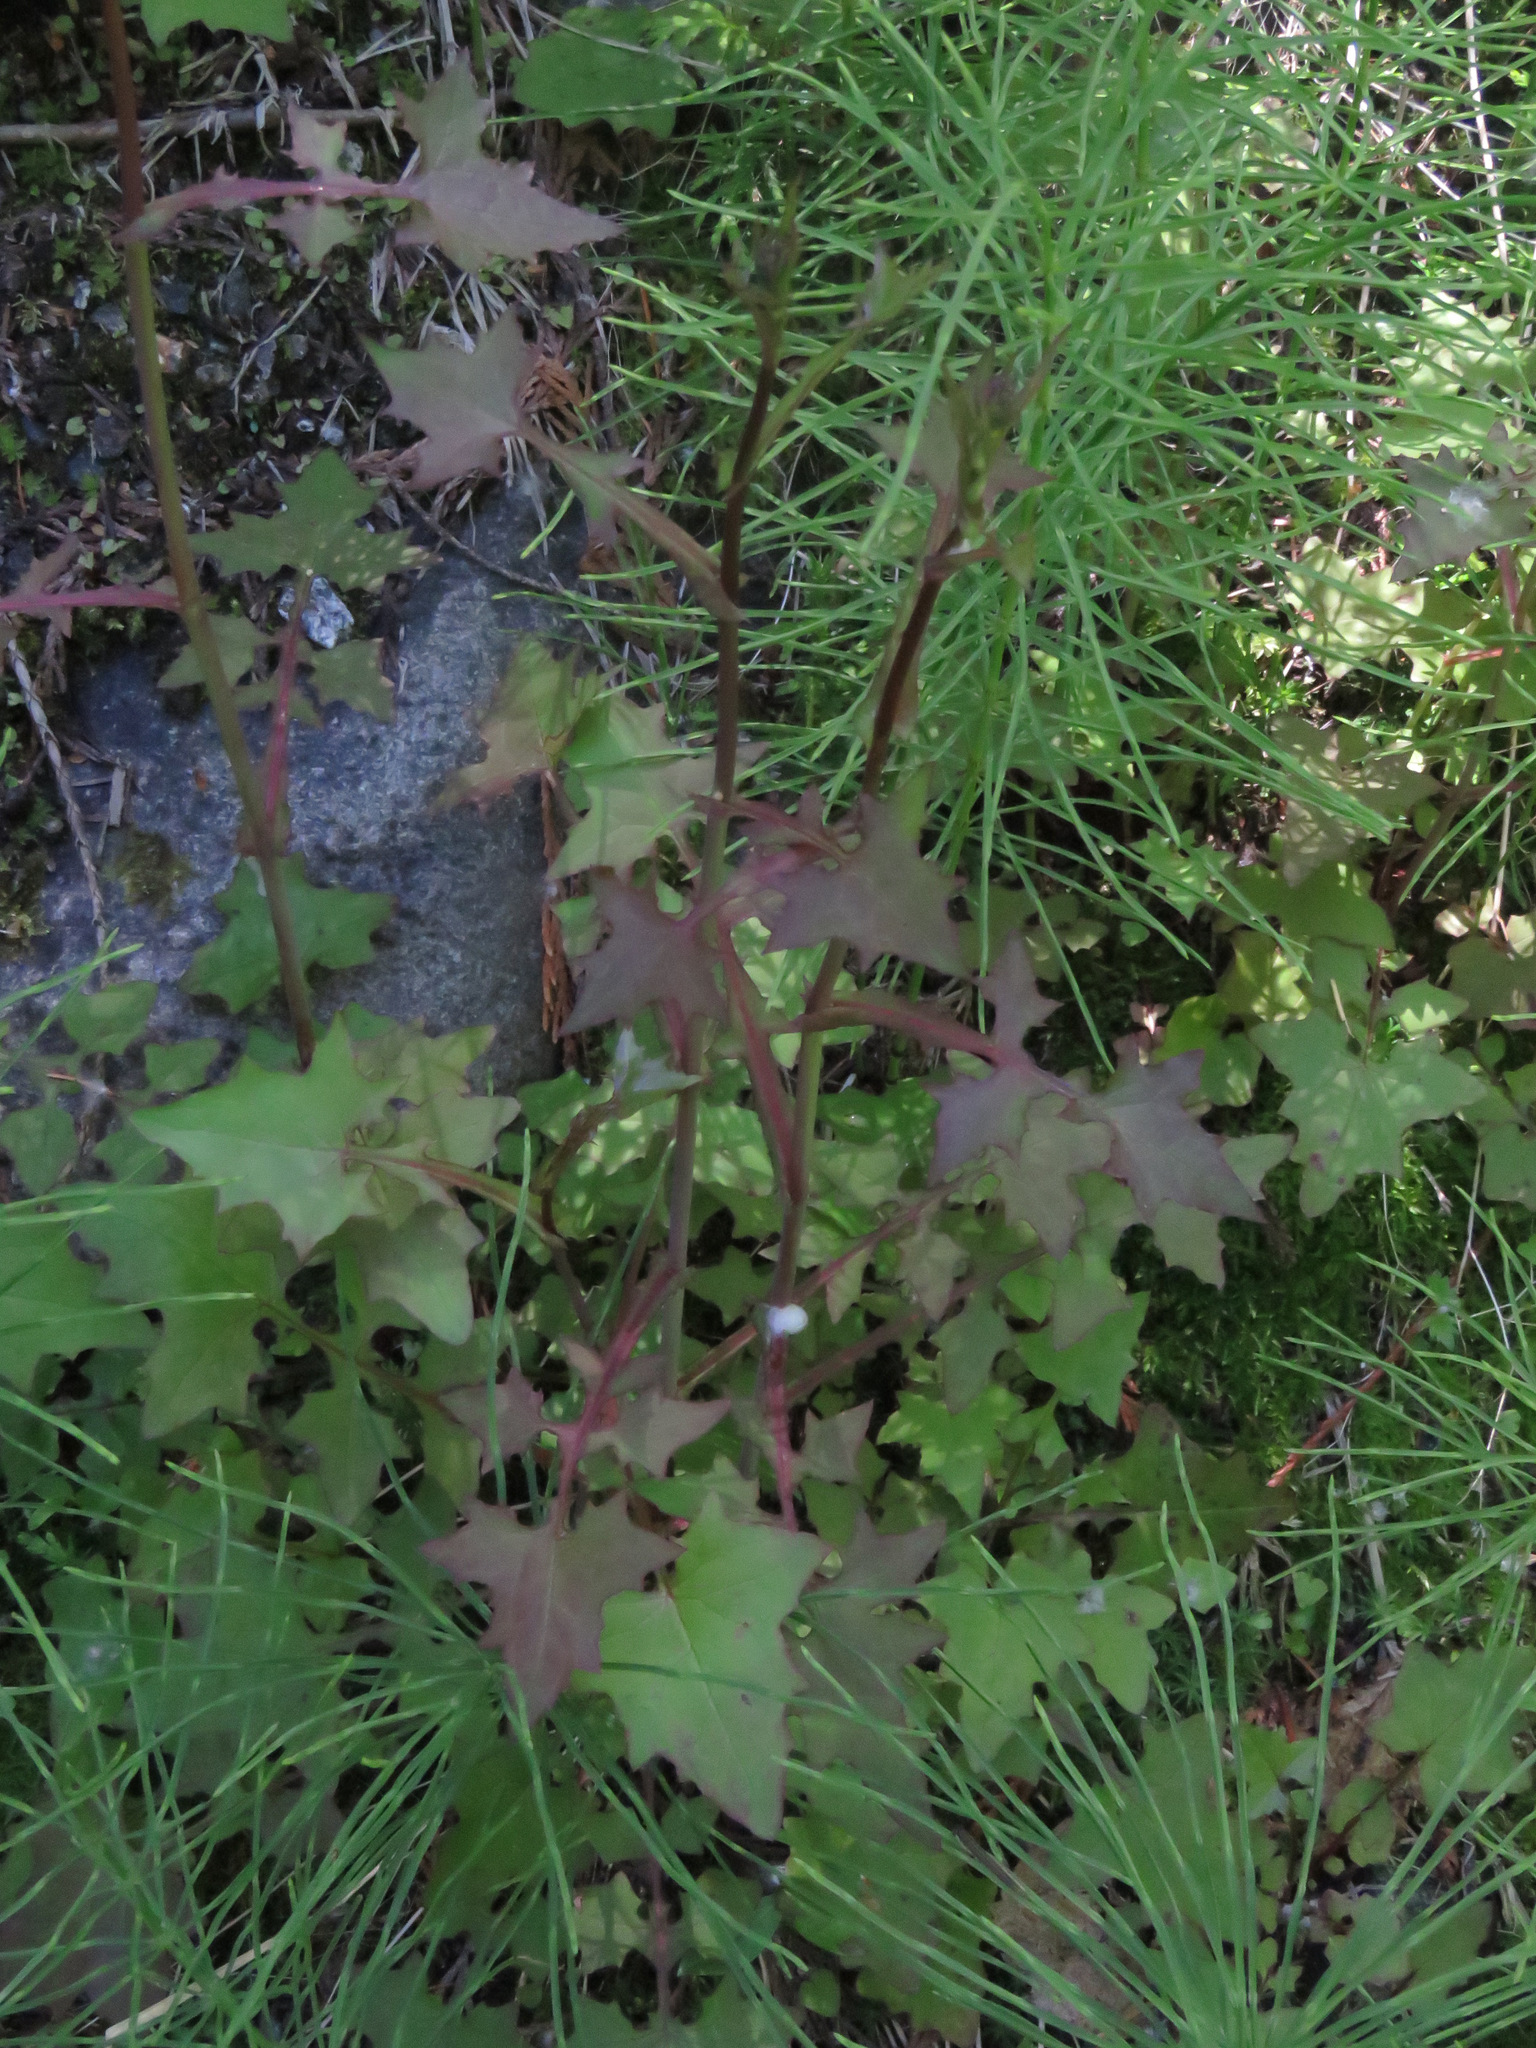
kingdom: Plantae
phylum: Tracheophyta
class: Magnoliopsida
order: Asterales
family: Asteraceae
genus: Mycelis
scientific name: Mycelis muralis
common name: Wall lettuce
